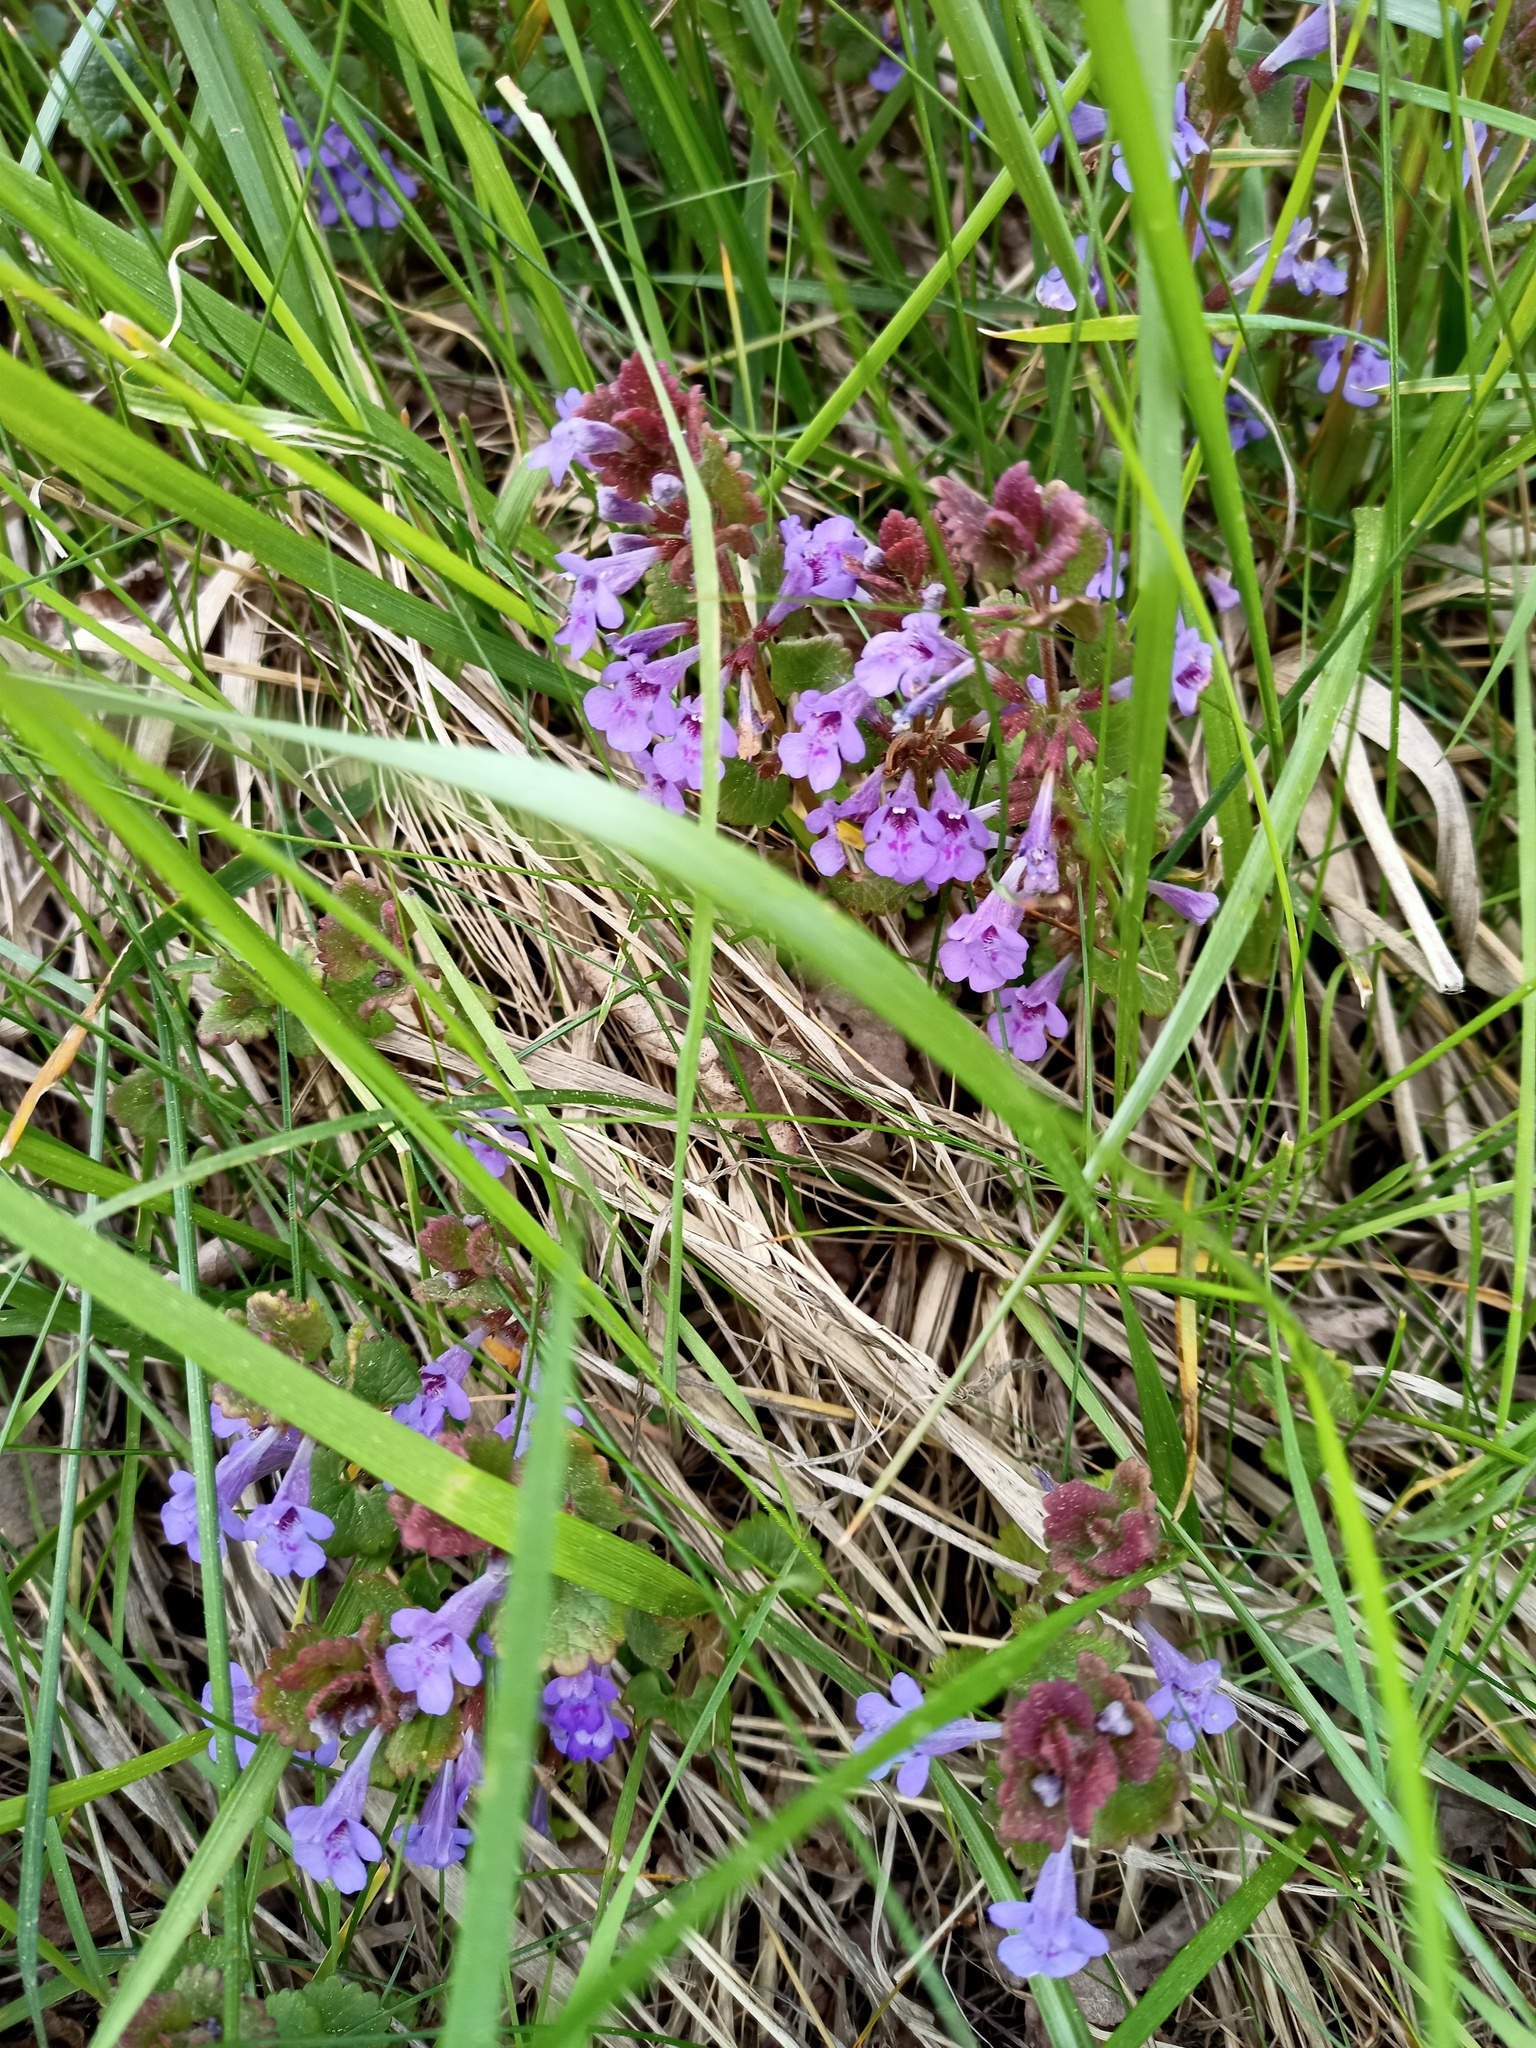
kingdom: Plantae
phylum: Tracheophyta
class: Magnoliopsida
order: Lamiales
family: Lamiaceae
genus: Glechoma
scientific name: Glechoma hederacea
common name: Ground ivy
